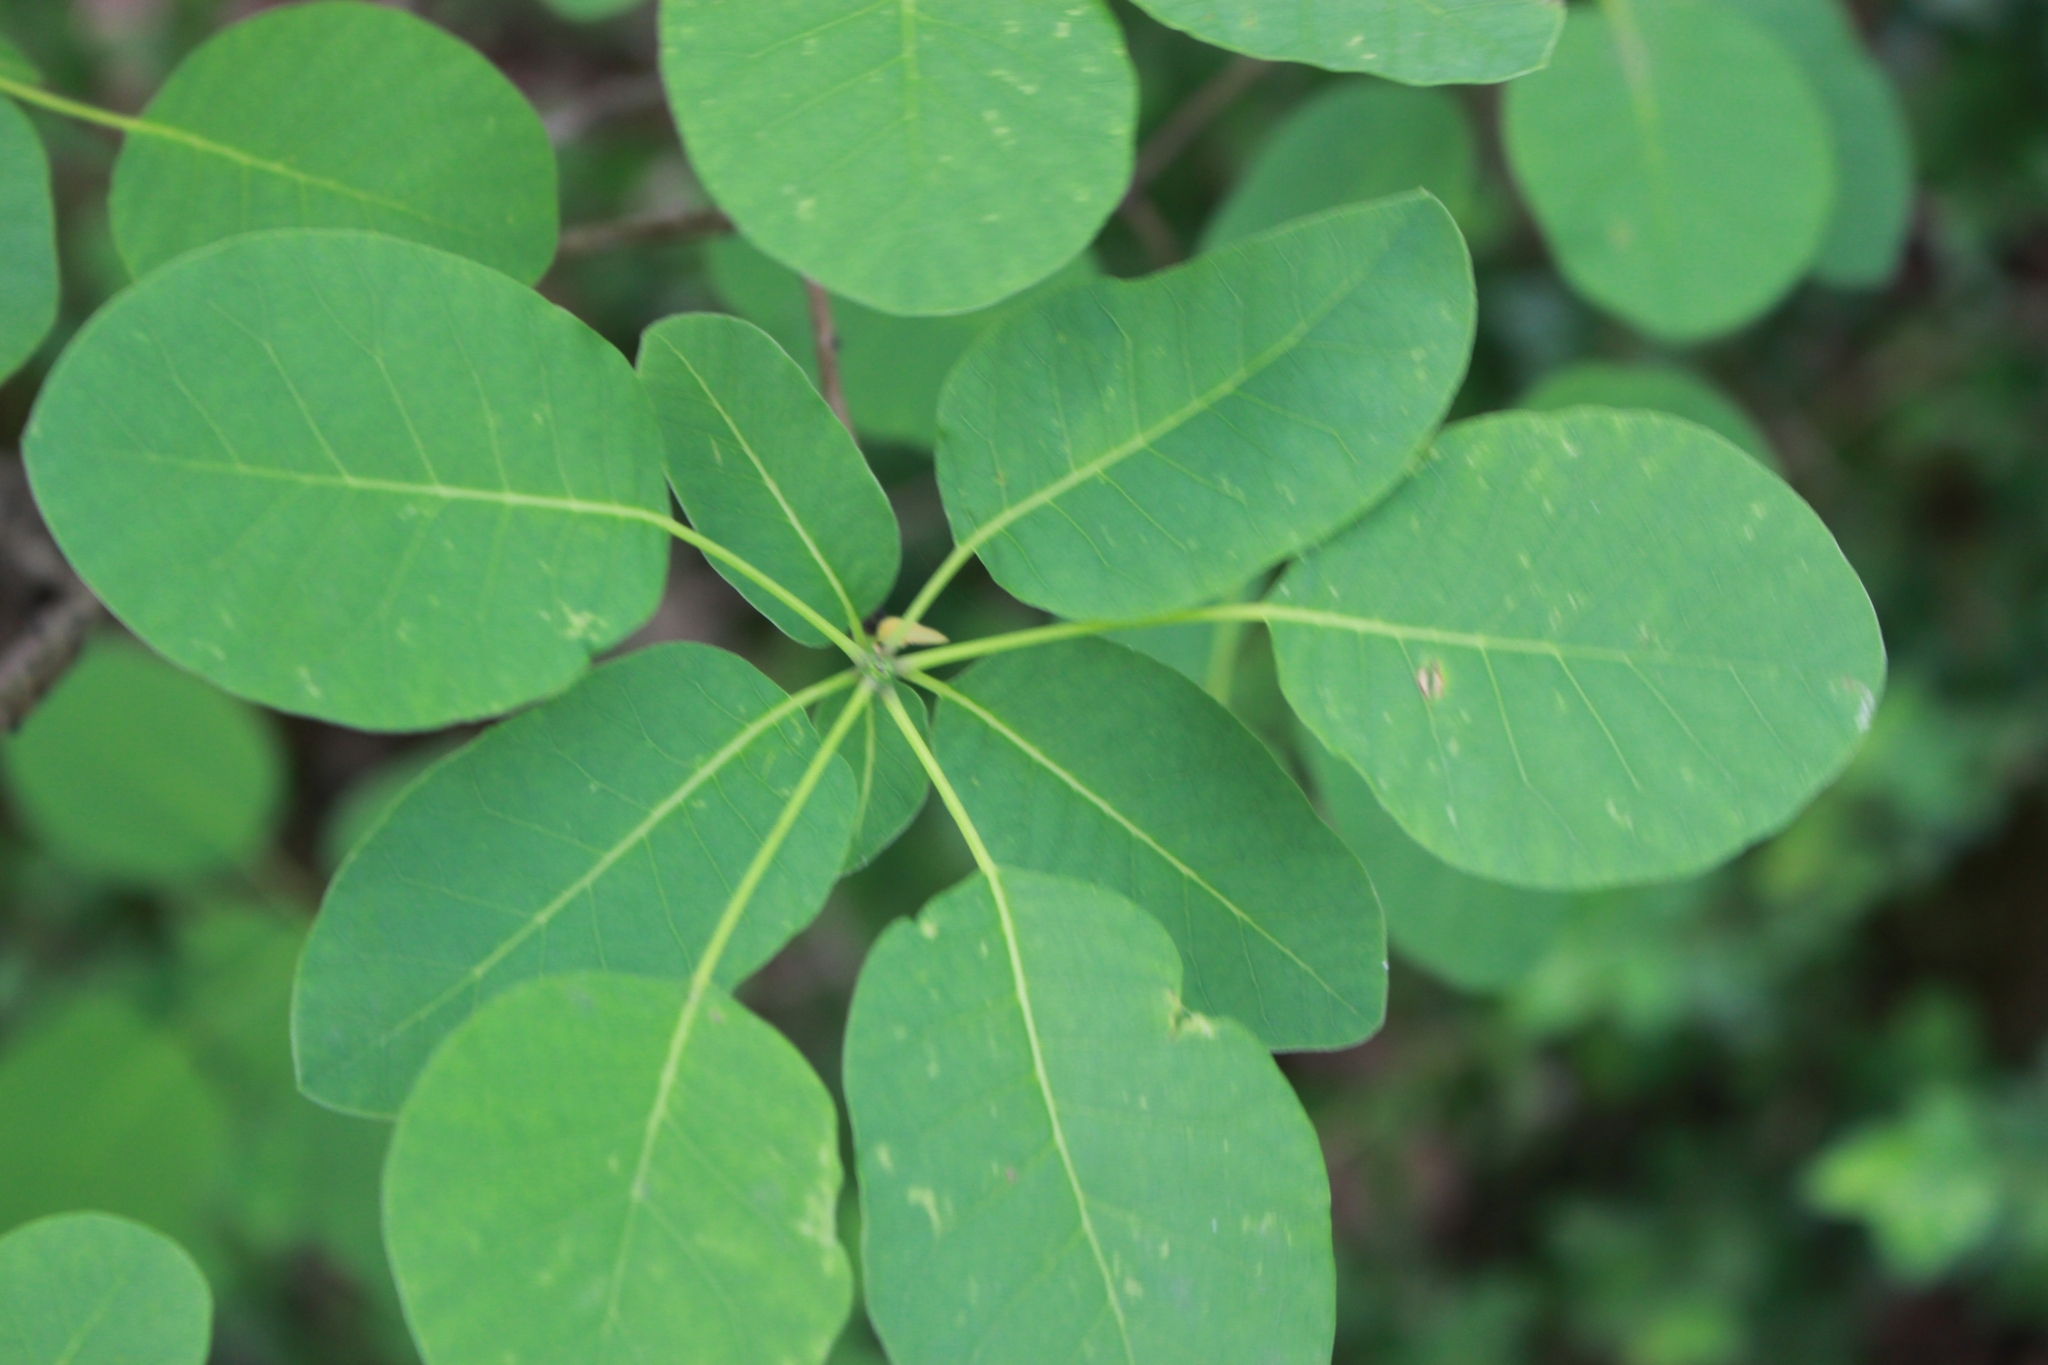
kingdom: Plantae
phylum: Tracheophyta
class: Magnoliopsida
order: Sapindales
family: Anacardiaceae
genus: Cotinus
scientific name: Cotinus coggygria
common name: Smoke-tree
